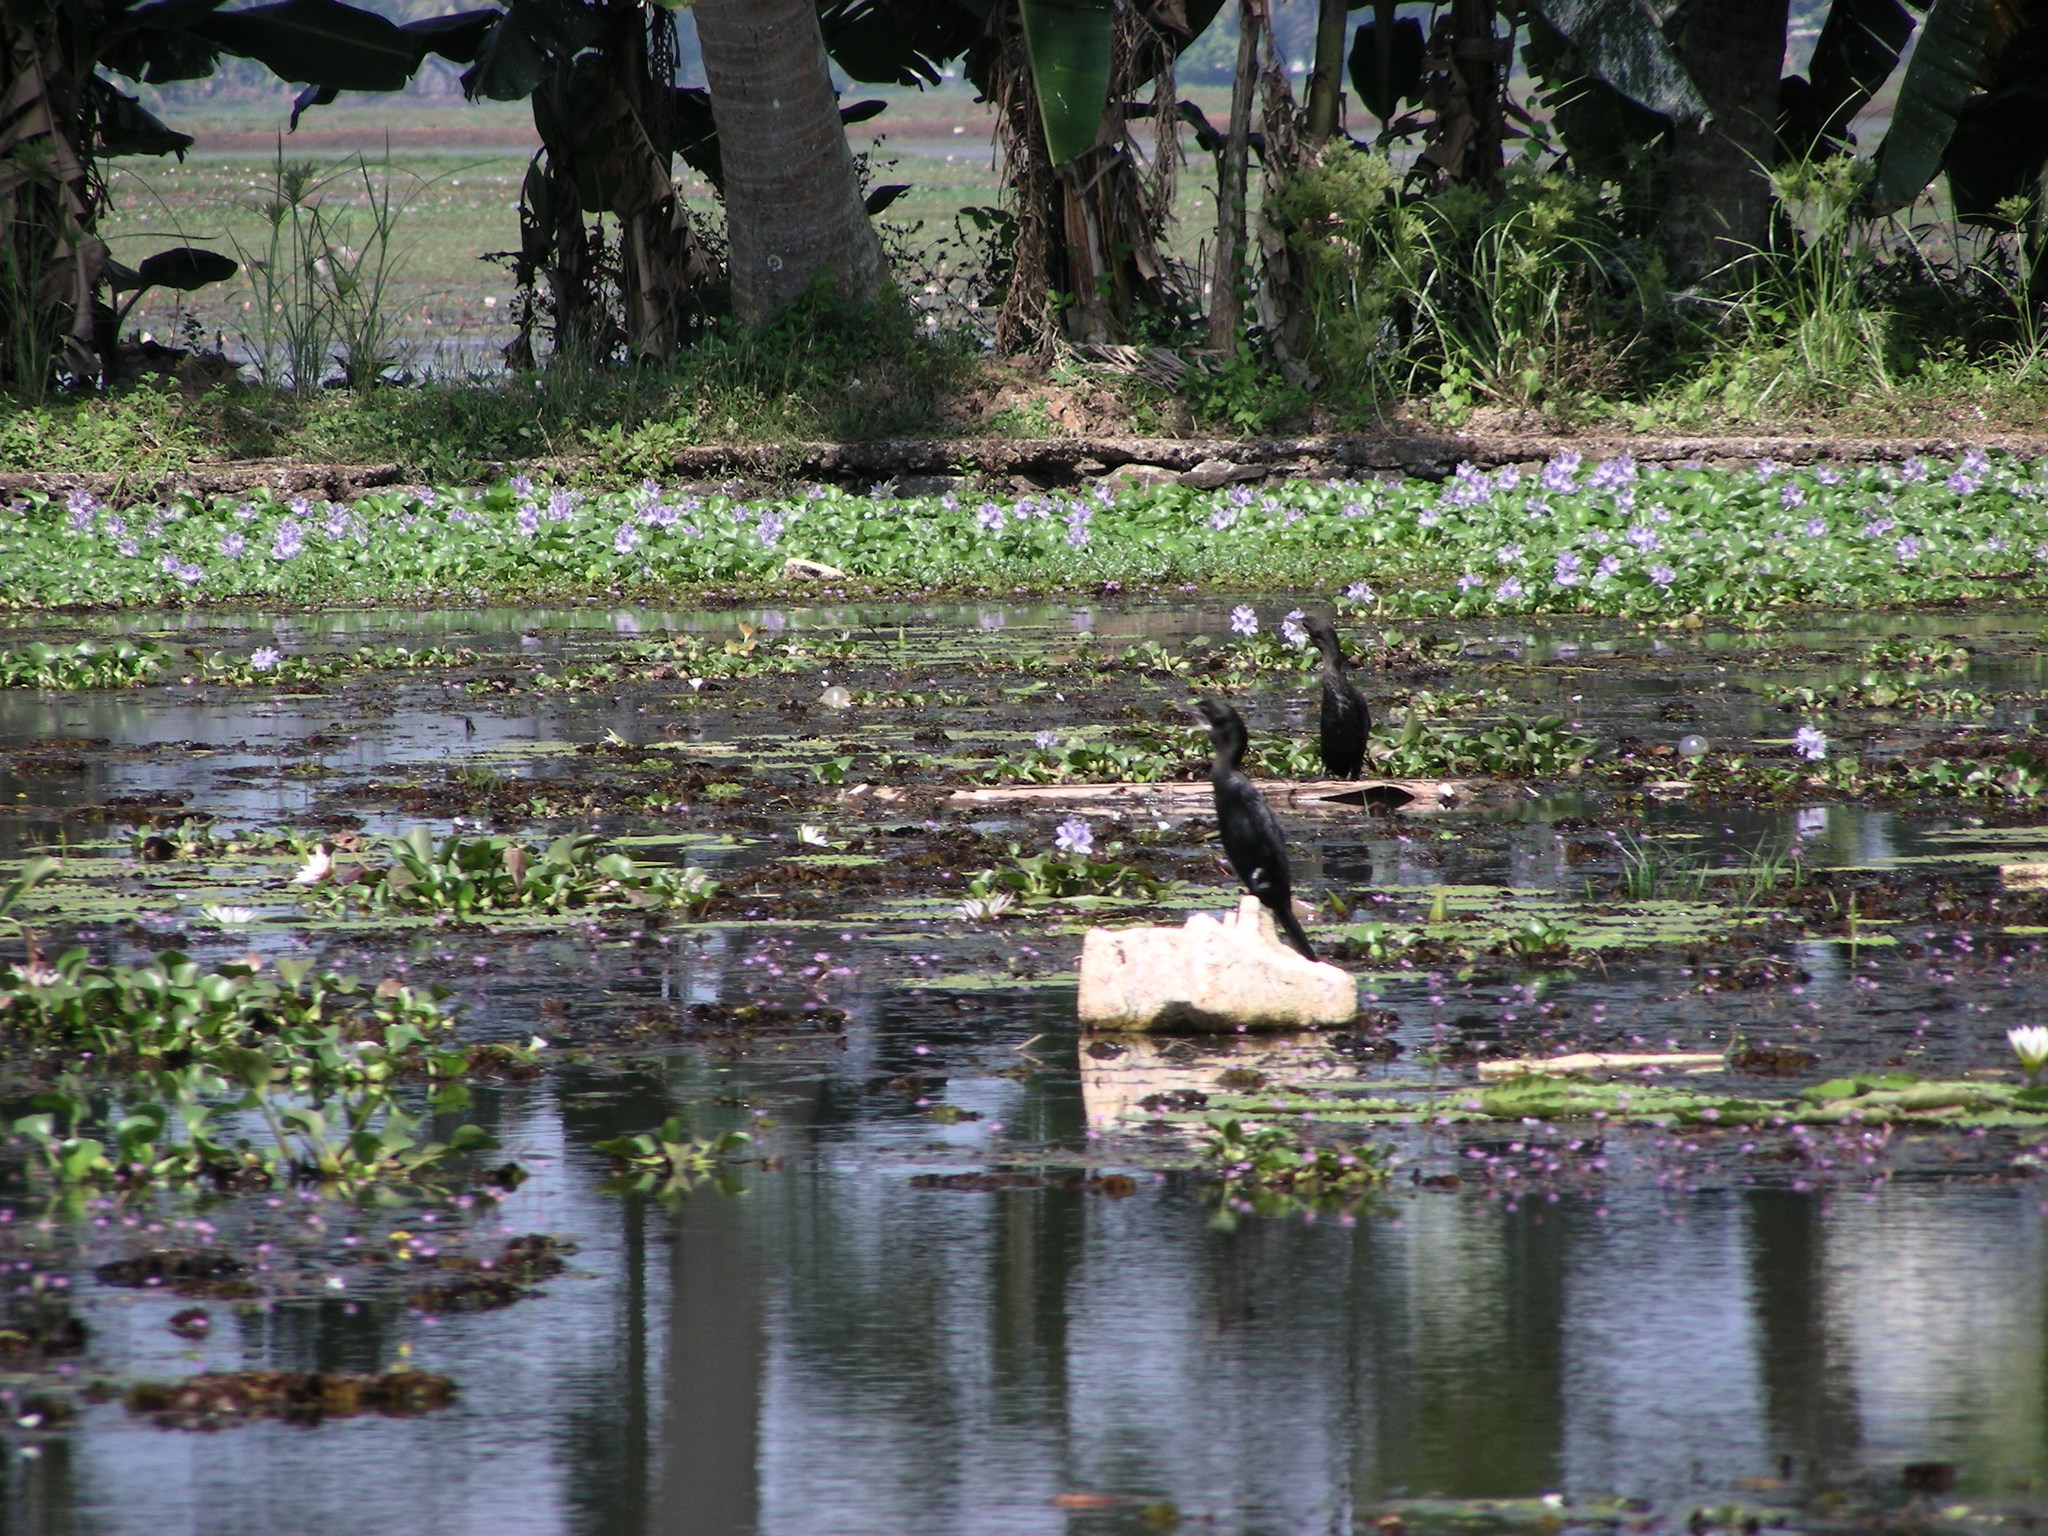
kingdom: Animalia
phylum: Chordata
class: Aves
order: Suliformes
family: Phalacrocoracidae
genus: Microcarbo
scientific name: Microcarbo niger
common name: Little cormorant
